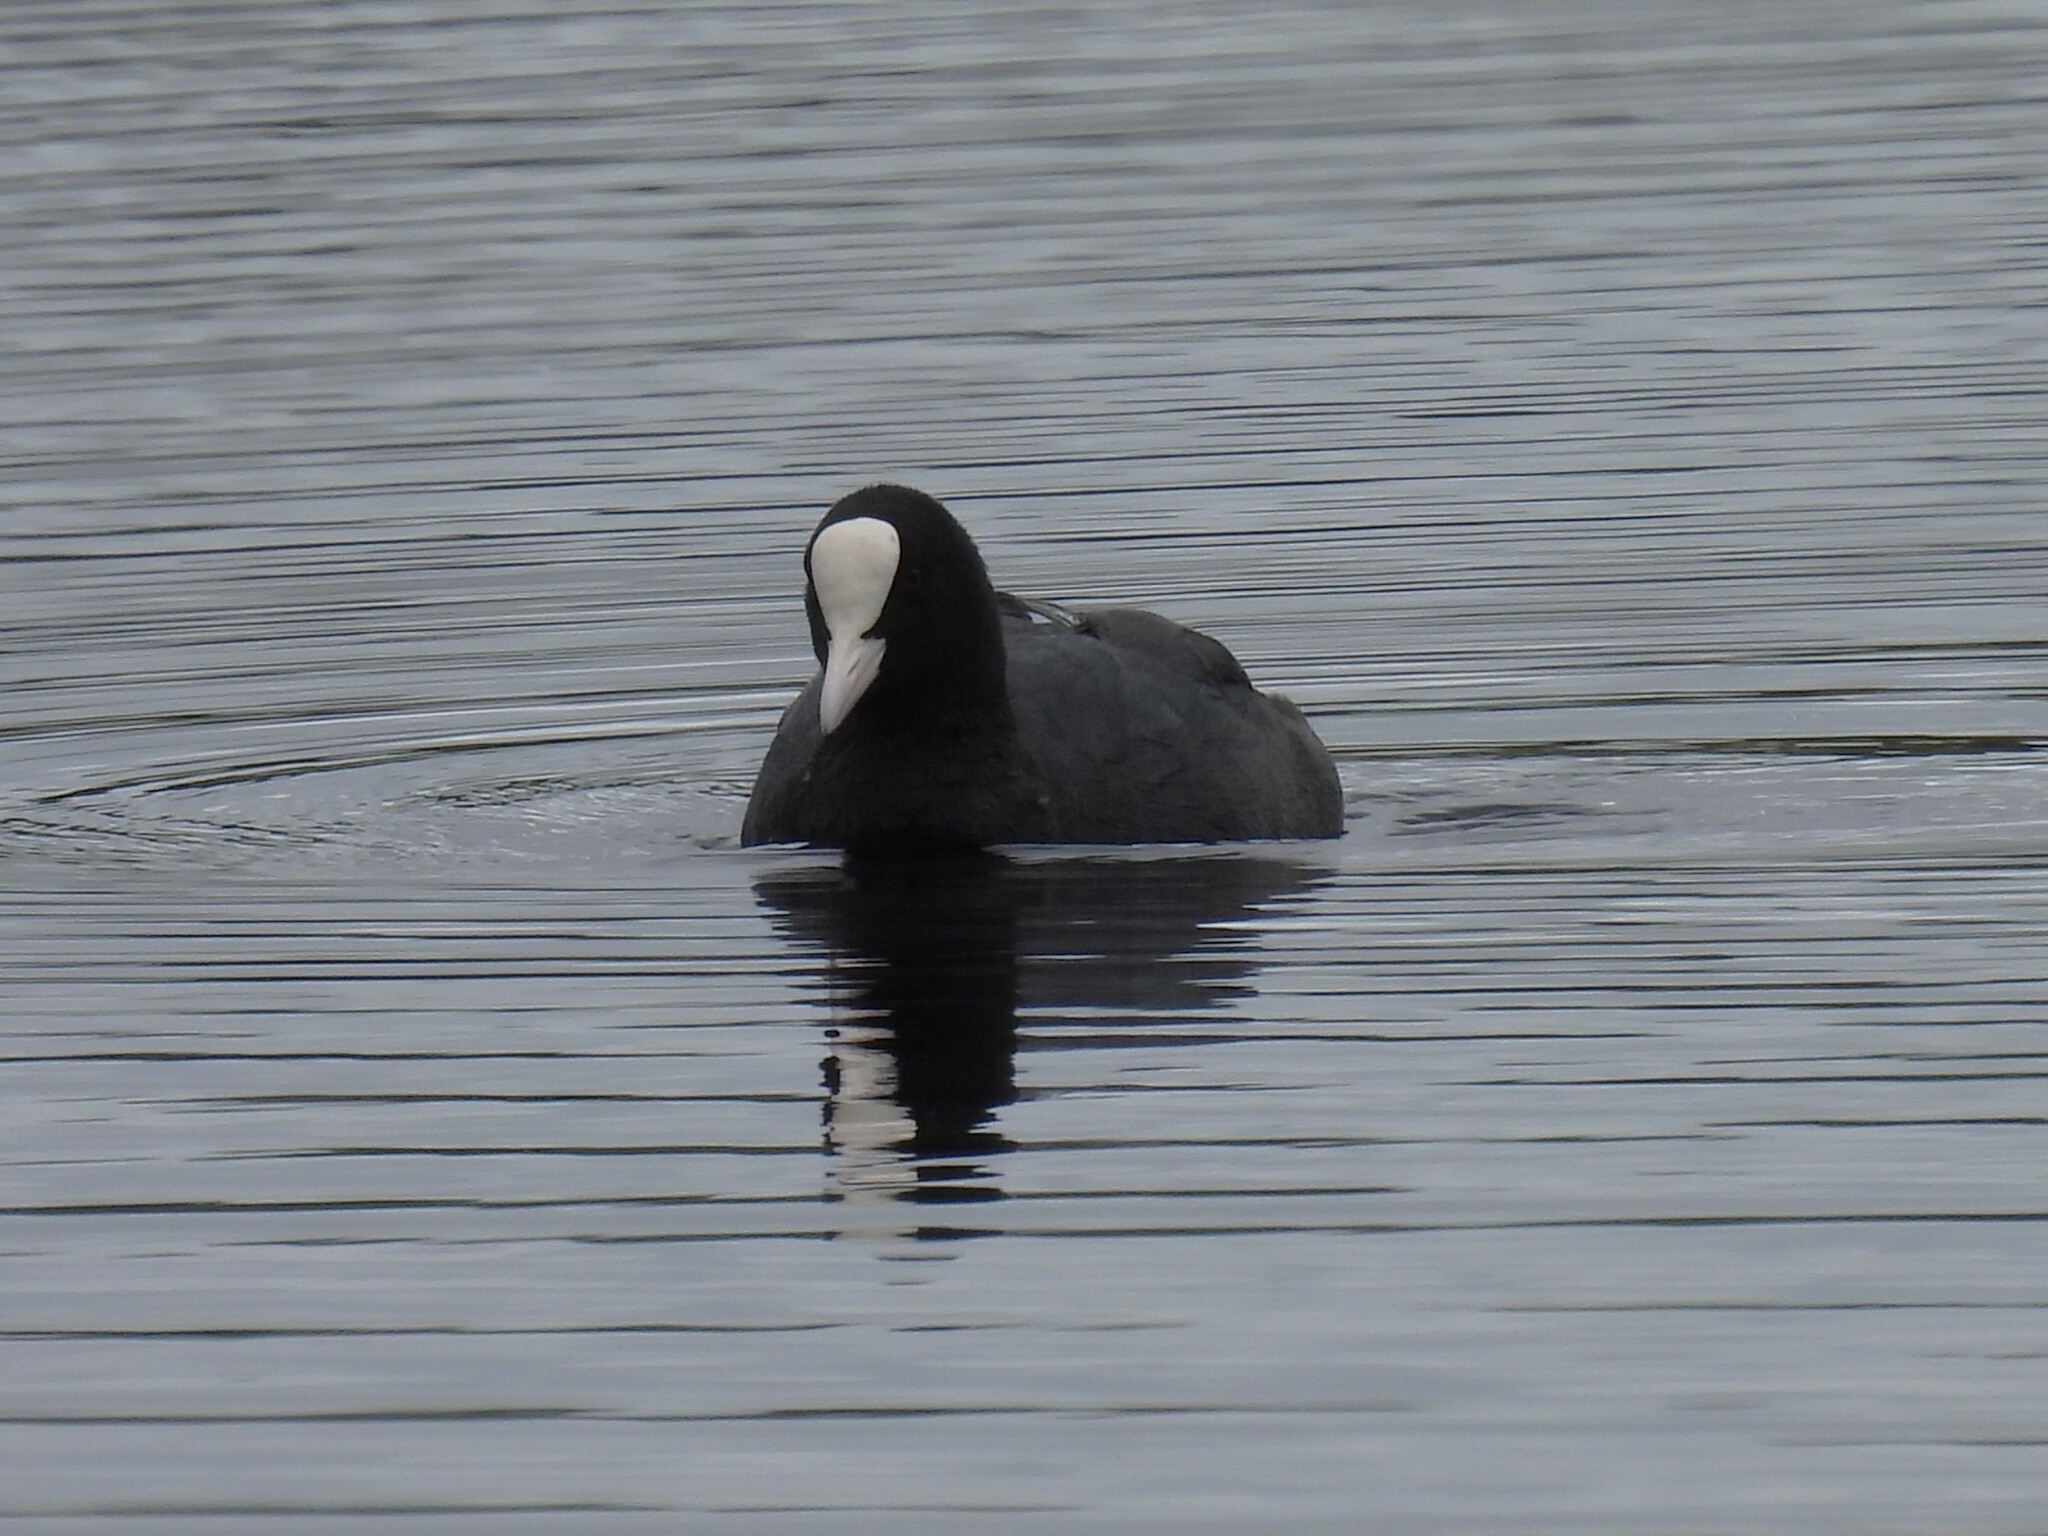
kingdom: Animalia
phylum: Chordata
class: Aves
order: Gruiformes
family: Rallidae
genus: Fulica
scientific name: Fulica atra
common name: Eurasian coot
